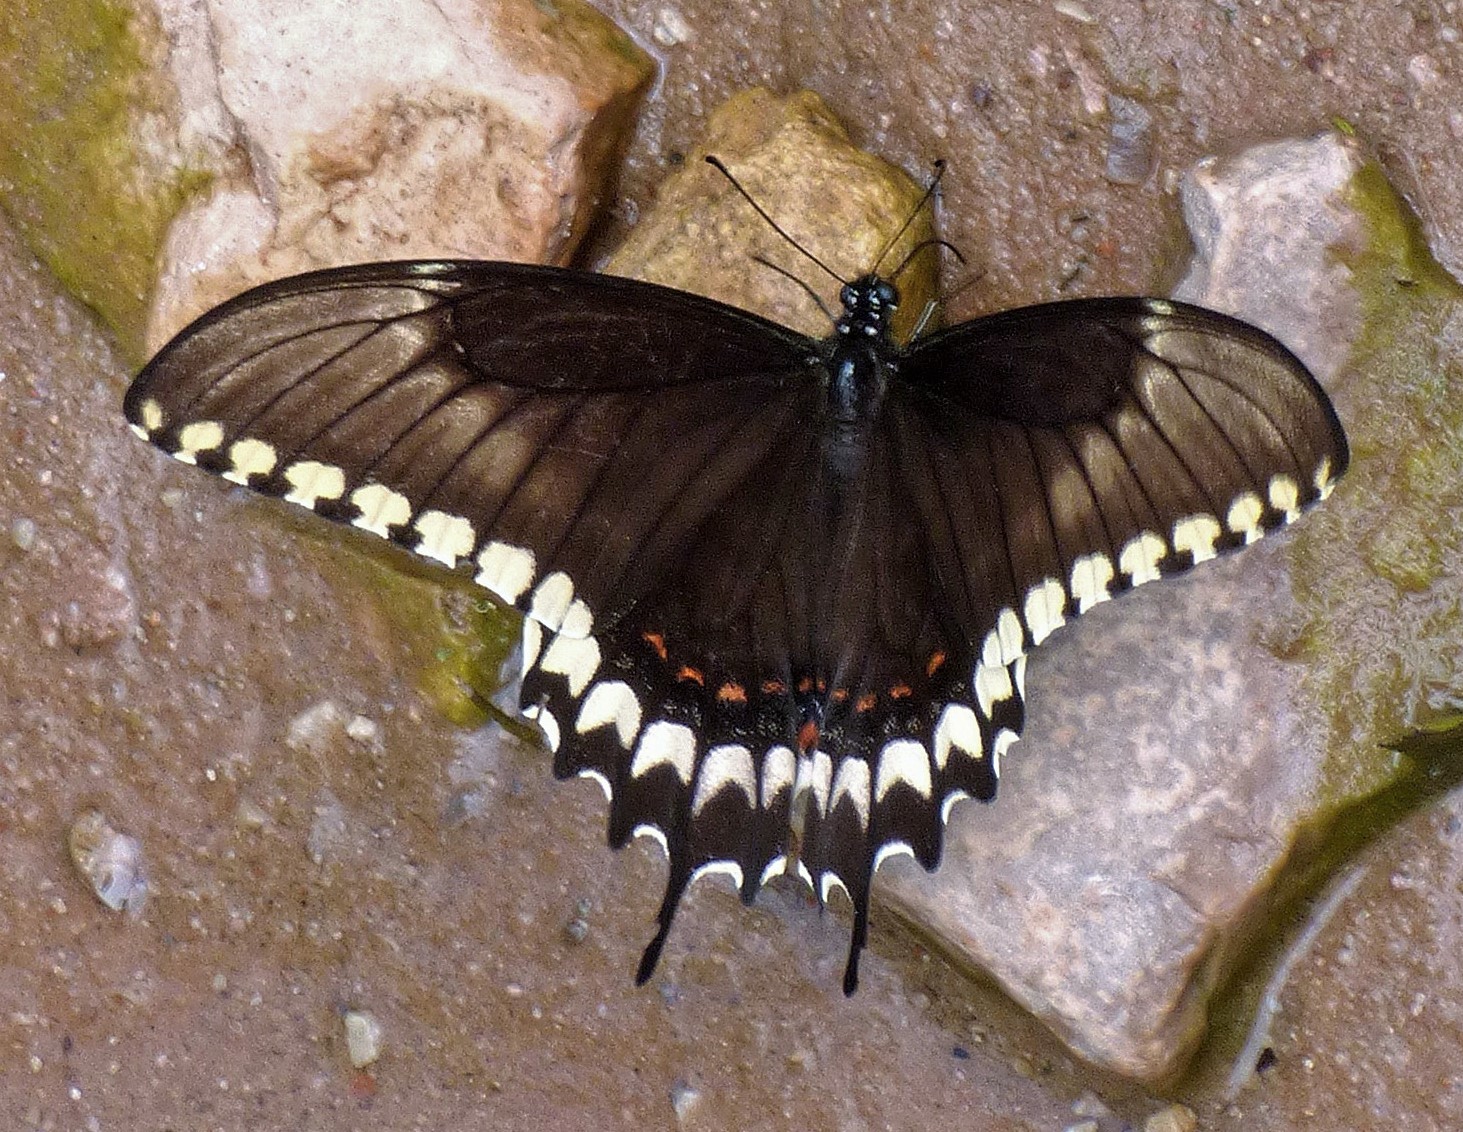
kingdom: Animalia
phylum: Arthropoda
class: Insecta
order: Lepidoptera
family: Papilionidae
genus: Papilio
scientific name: Papilio astyalus
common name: Astyalus swallowtail
